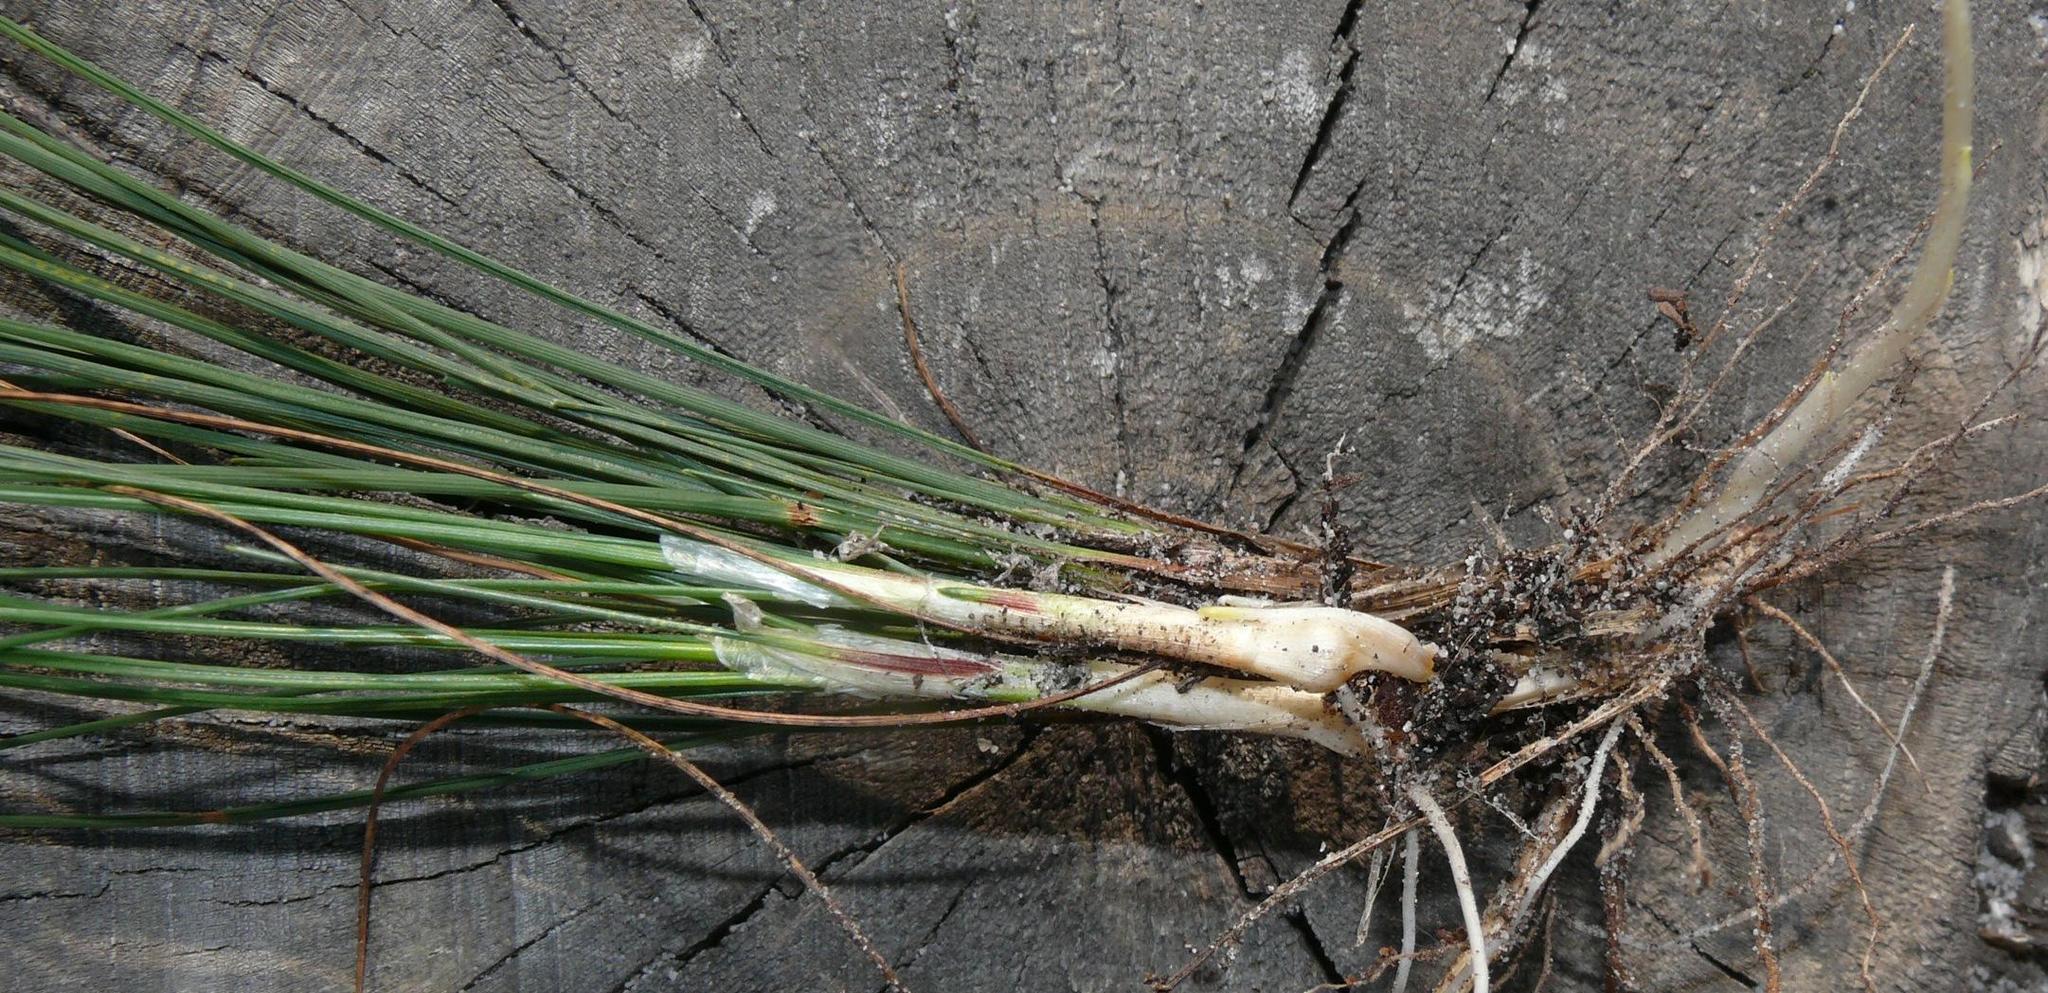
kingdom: Plantae
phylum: Tracheophyta
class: Liliopsida
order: Poales
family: Cyperaceae
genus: Ficinia
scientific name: Ficinia bulbosa
